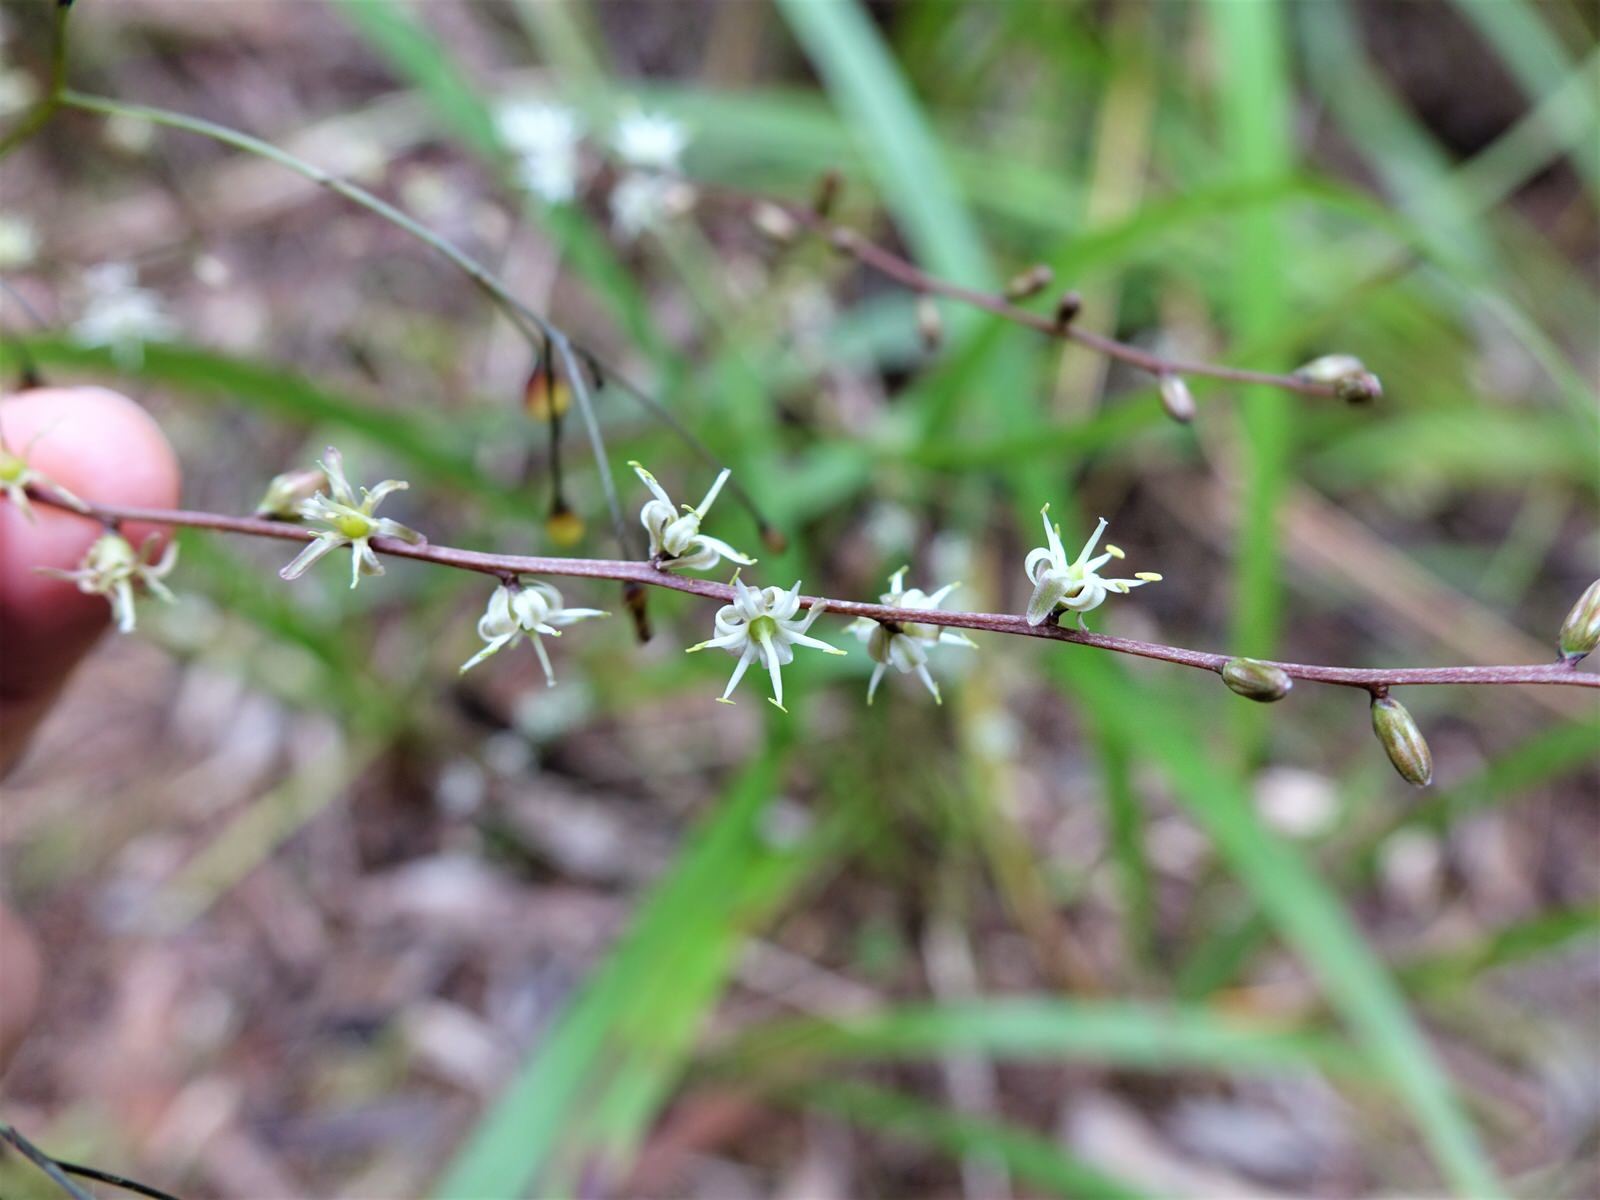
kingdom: Plantae
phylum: Tracheophyta
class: Liliopsida
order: Asparagales
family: Asparagaceae
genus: Cordyline
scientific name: Cordyline pumilio
